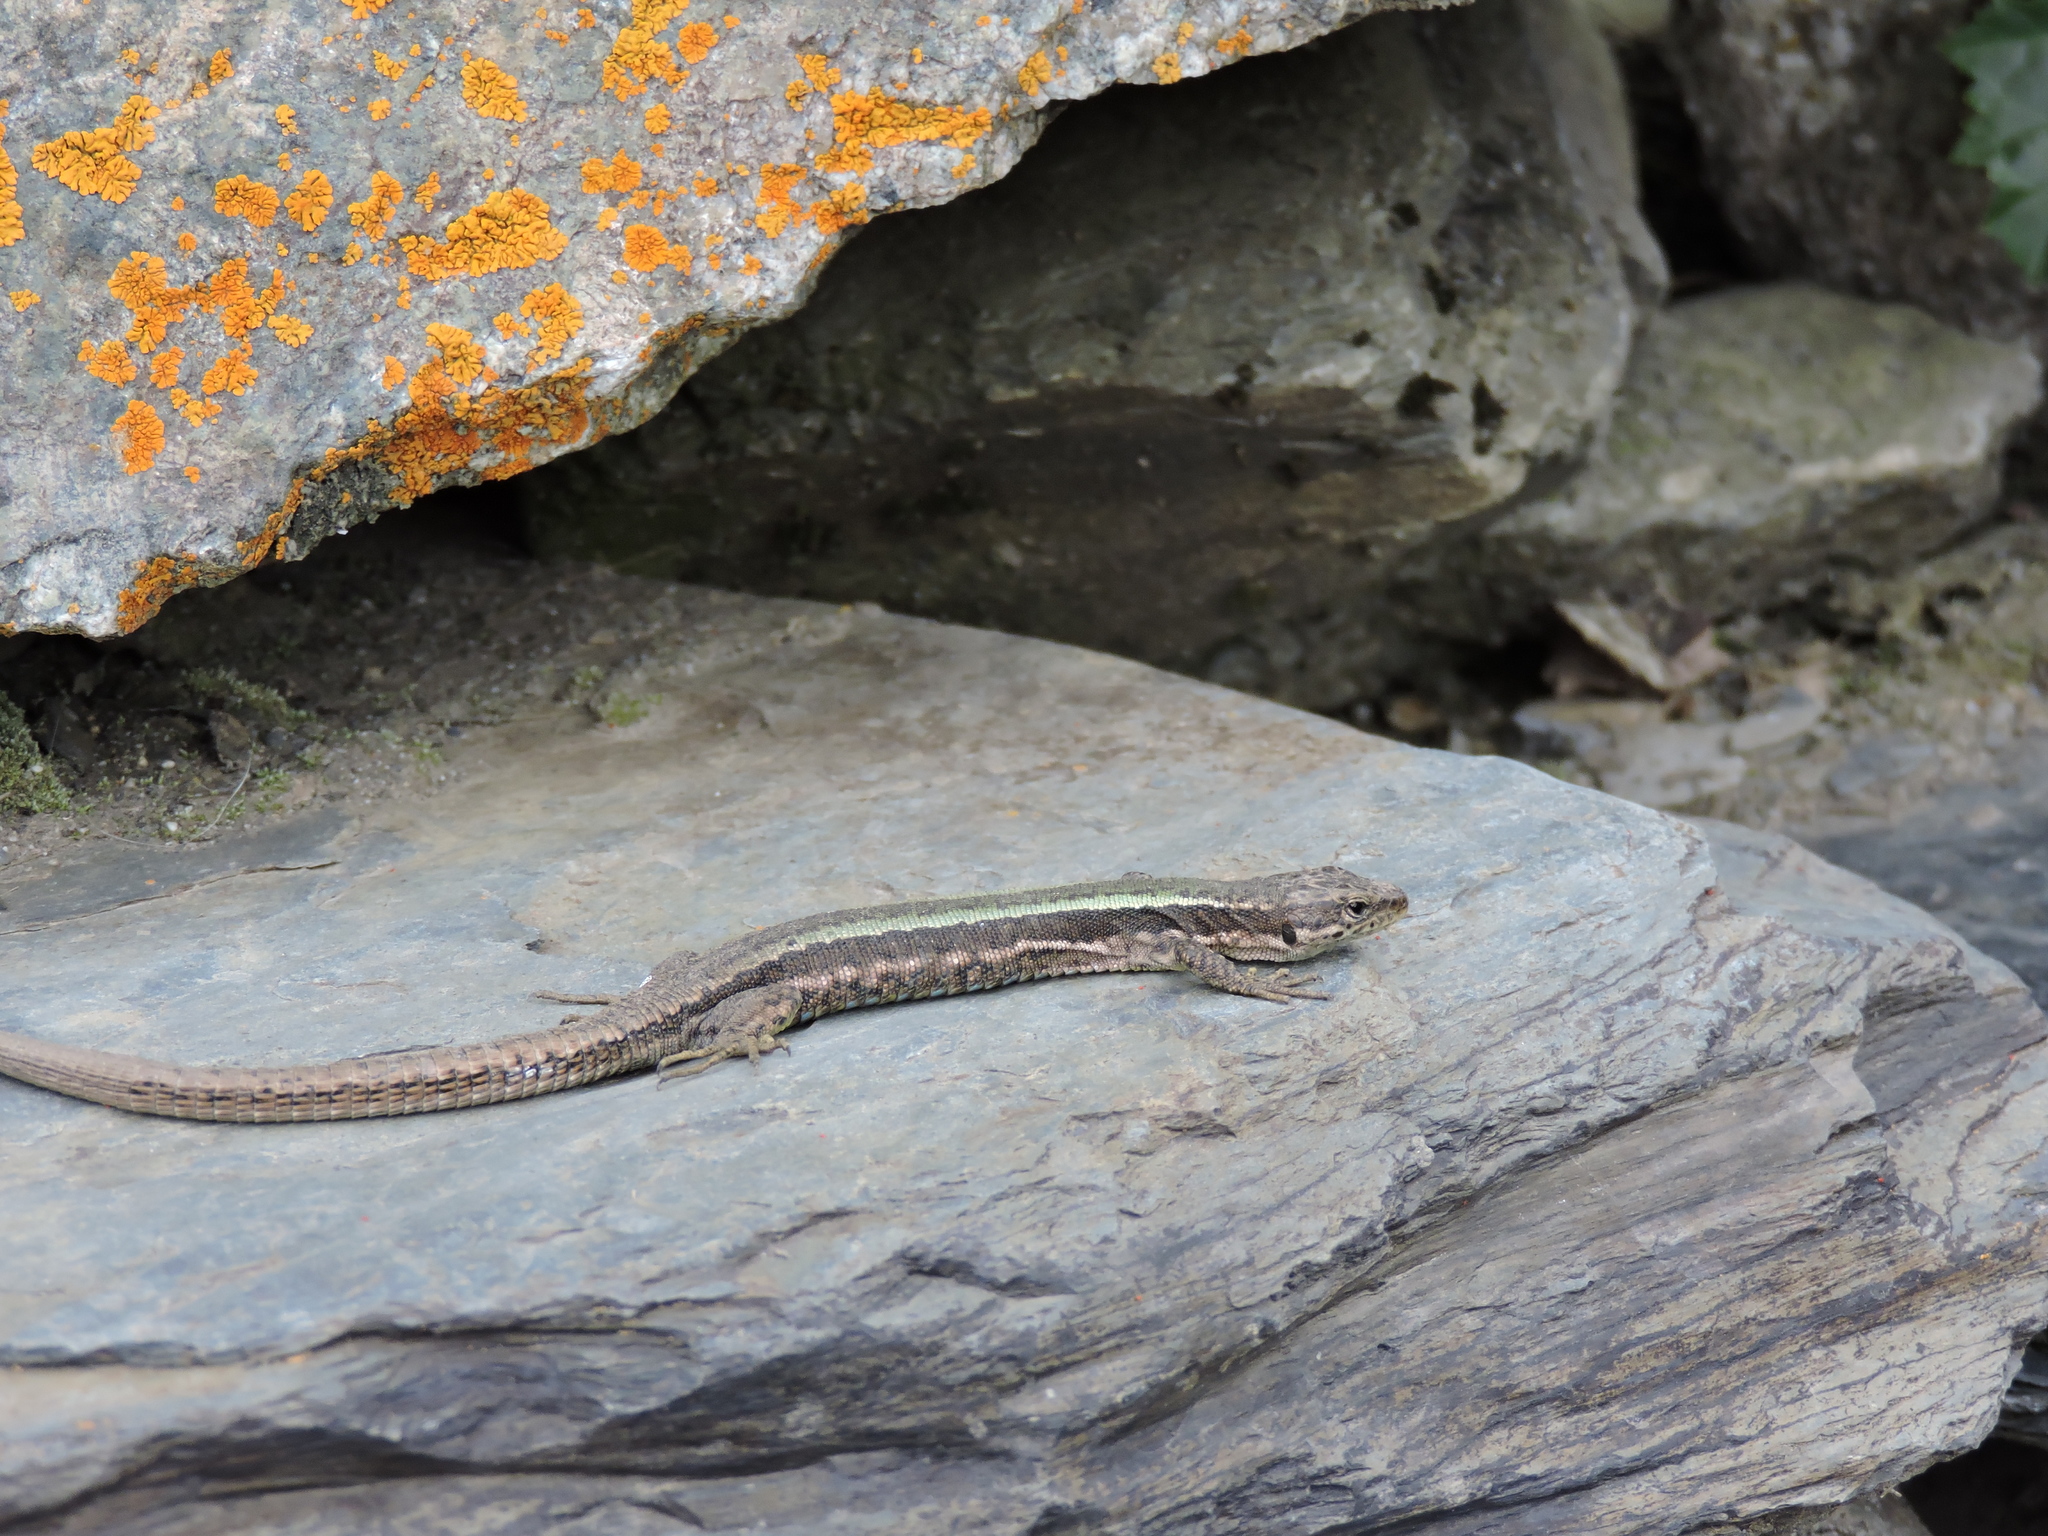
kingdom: Animalia
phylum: Chordata
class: Squamata
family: Lacertidae
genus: Darevskia
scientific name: Darevskia caucasica
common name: Caucasian llzard
